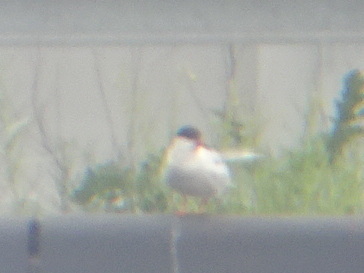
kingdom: Animalia
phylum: Chordata
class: Aves
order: Charadriiformes
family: Laridae
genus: Sterna
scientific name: Sterna hirundo
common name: Common tern
